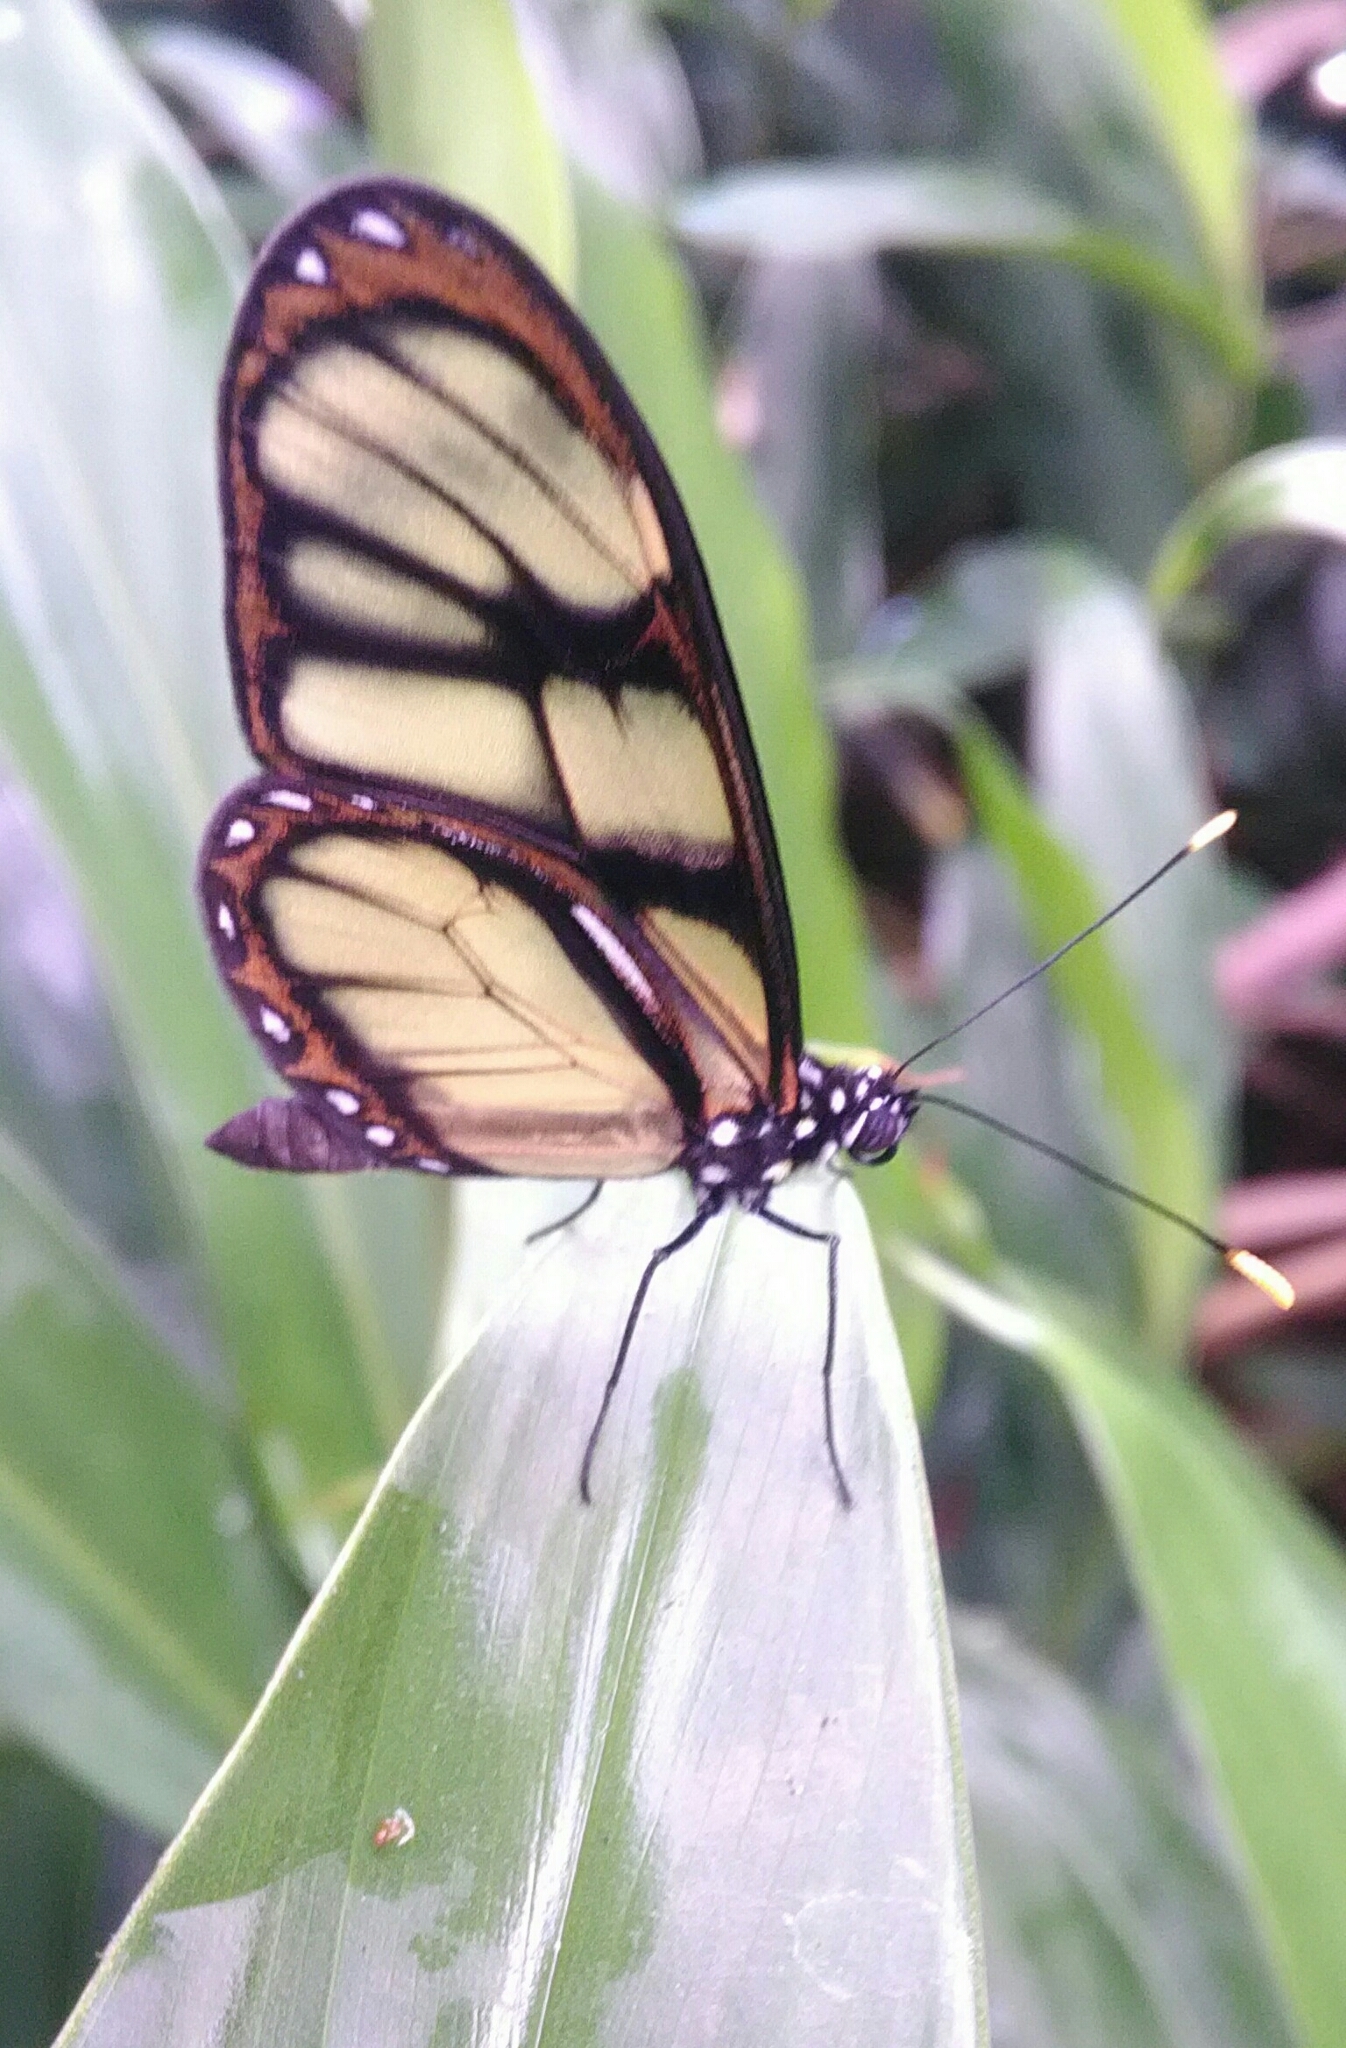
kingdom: Animalia
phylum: Arthropoda
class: Insecta
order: Lepidoptera
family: Nymphalidae
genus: Epityches
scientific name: Epityches eupompe
